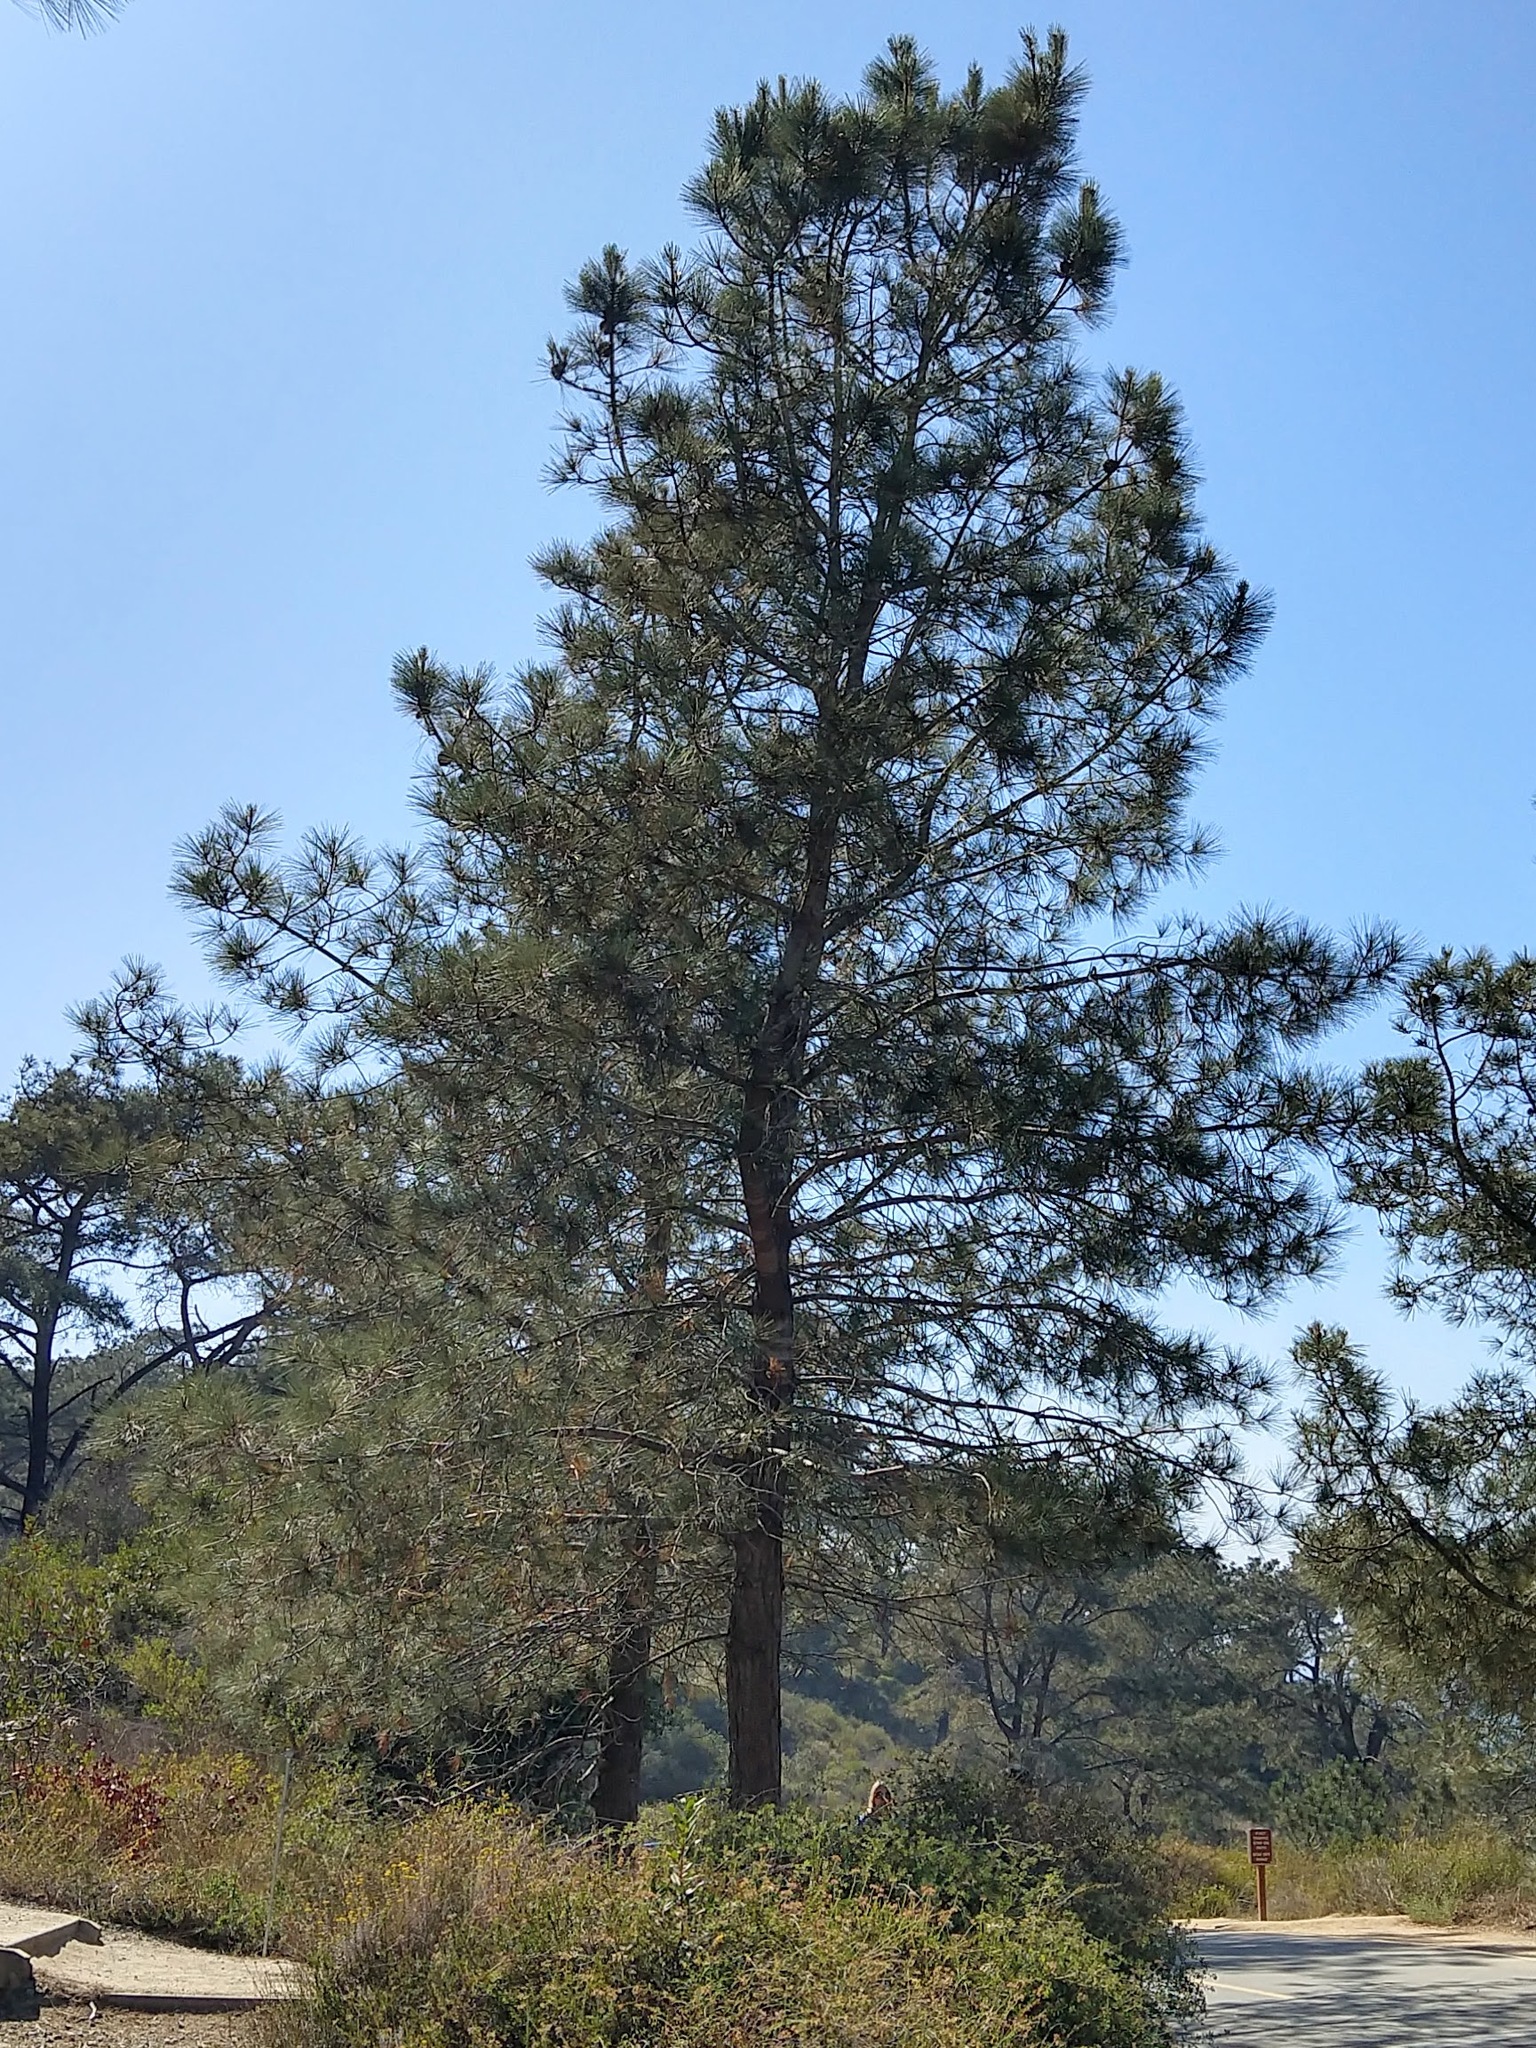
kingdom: Plantae
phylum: Tracheophyta
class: Pinopsida
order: Pinales
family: Pinaceae
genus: Pinus
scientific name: Pinus torreyana
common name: Torrey pine
